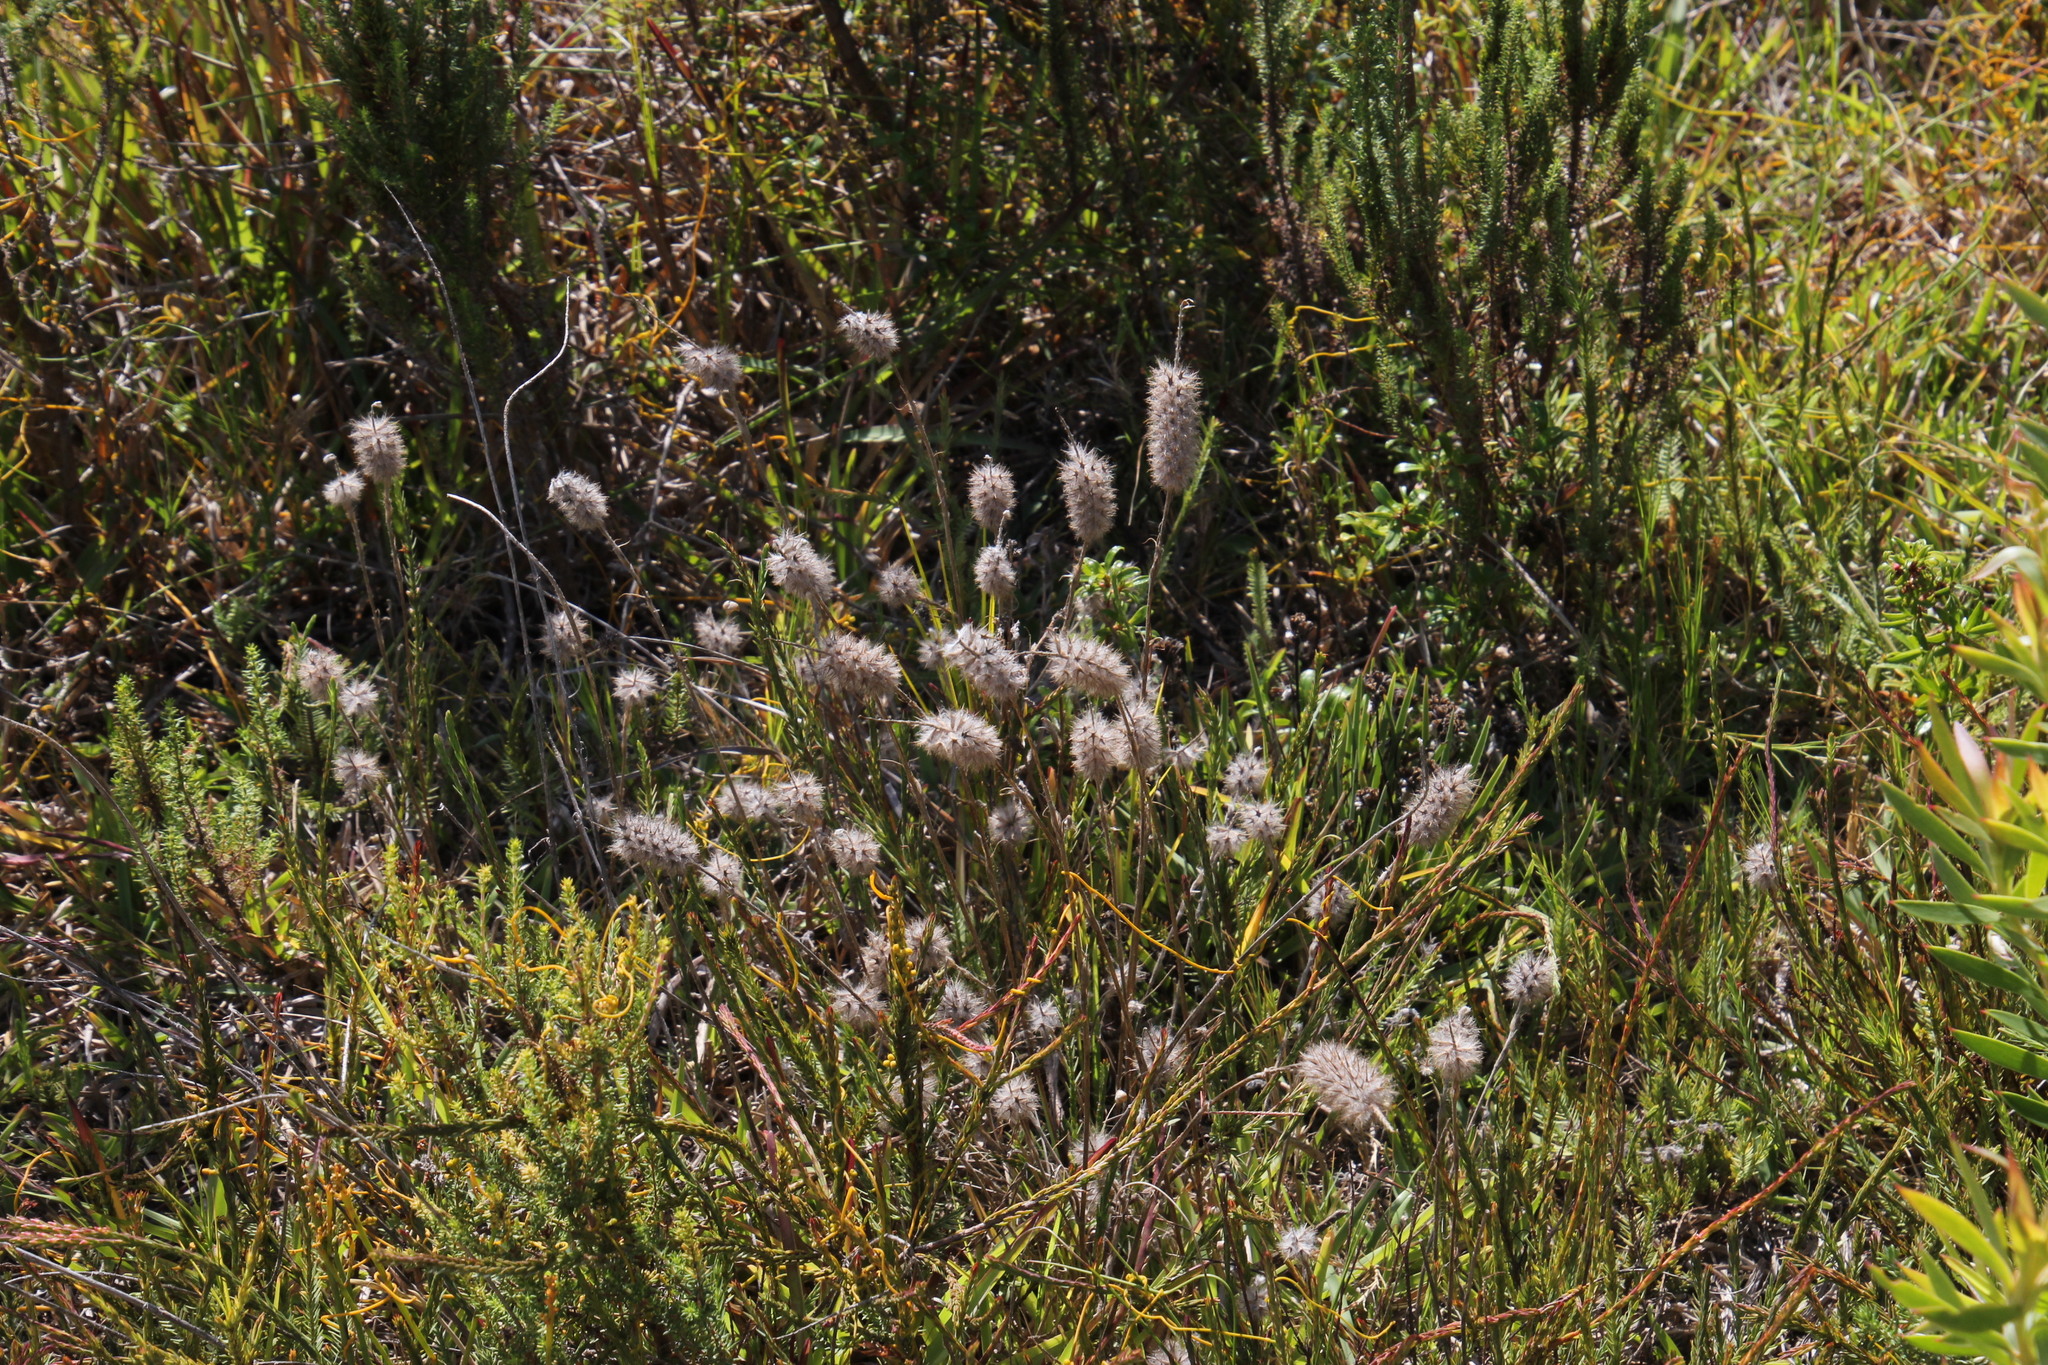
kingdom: Plantae
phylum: Tracheophyta
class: Magnoliopsida
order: Fabales
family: Fabaceae
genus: Trifolium
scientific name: Trifolium angustifolium
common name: Narrow clover
